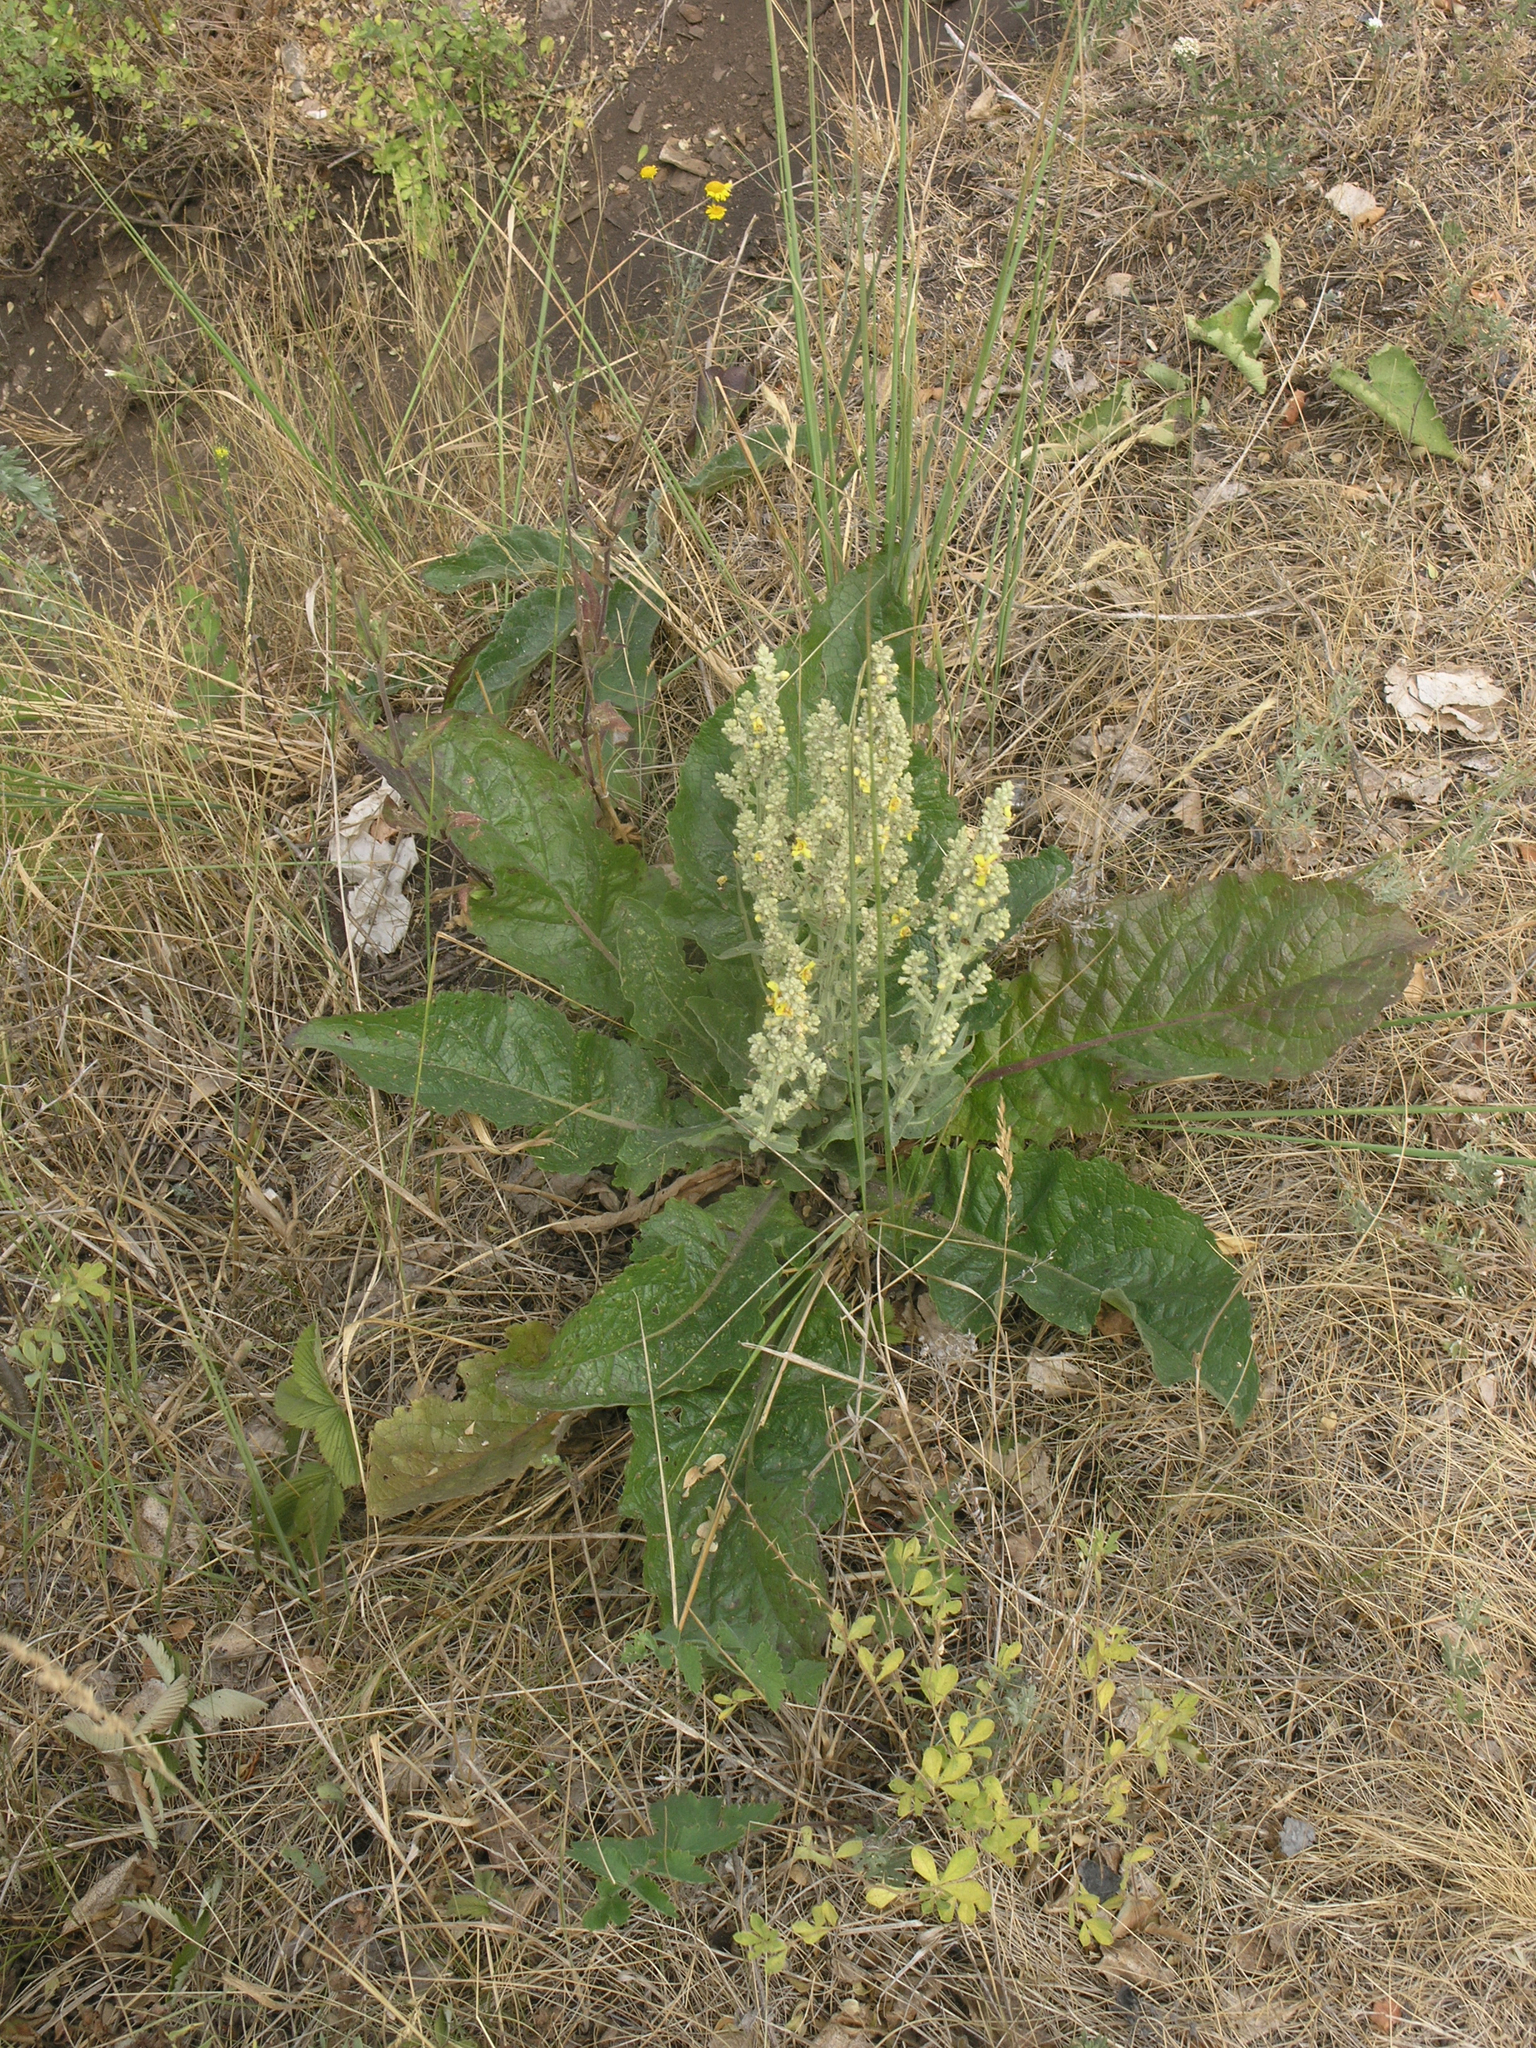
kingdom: Plantae
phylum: Tracheophyta
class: Magnoliopsida
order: Lamiales
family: Scrophulariaceae
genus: Verbascum
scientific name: Verbascum lychnitis
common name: White mullein
